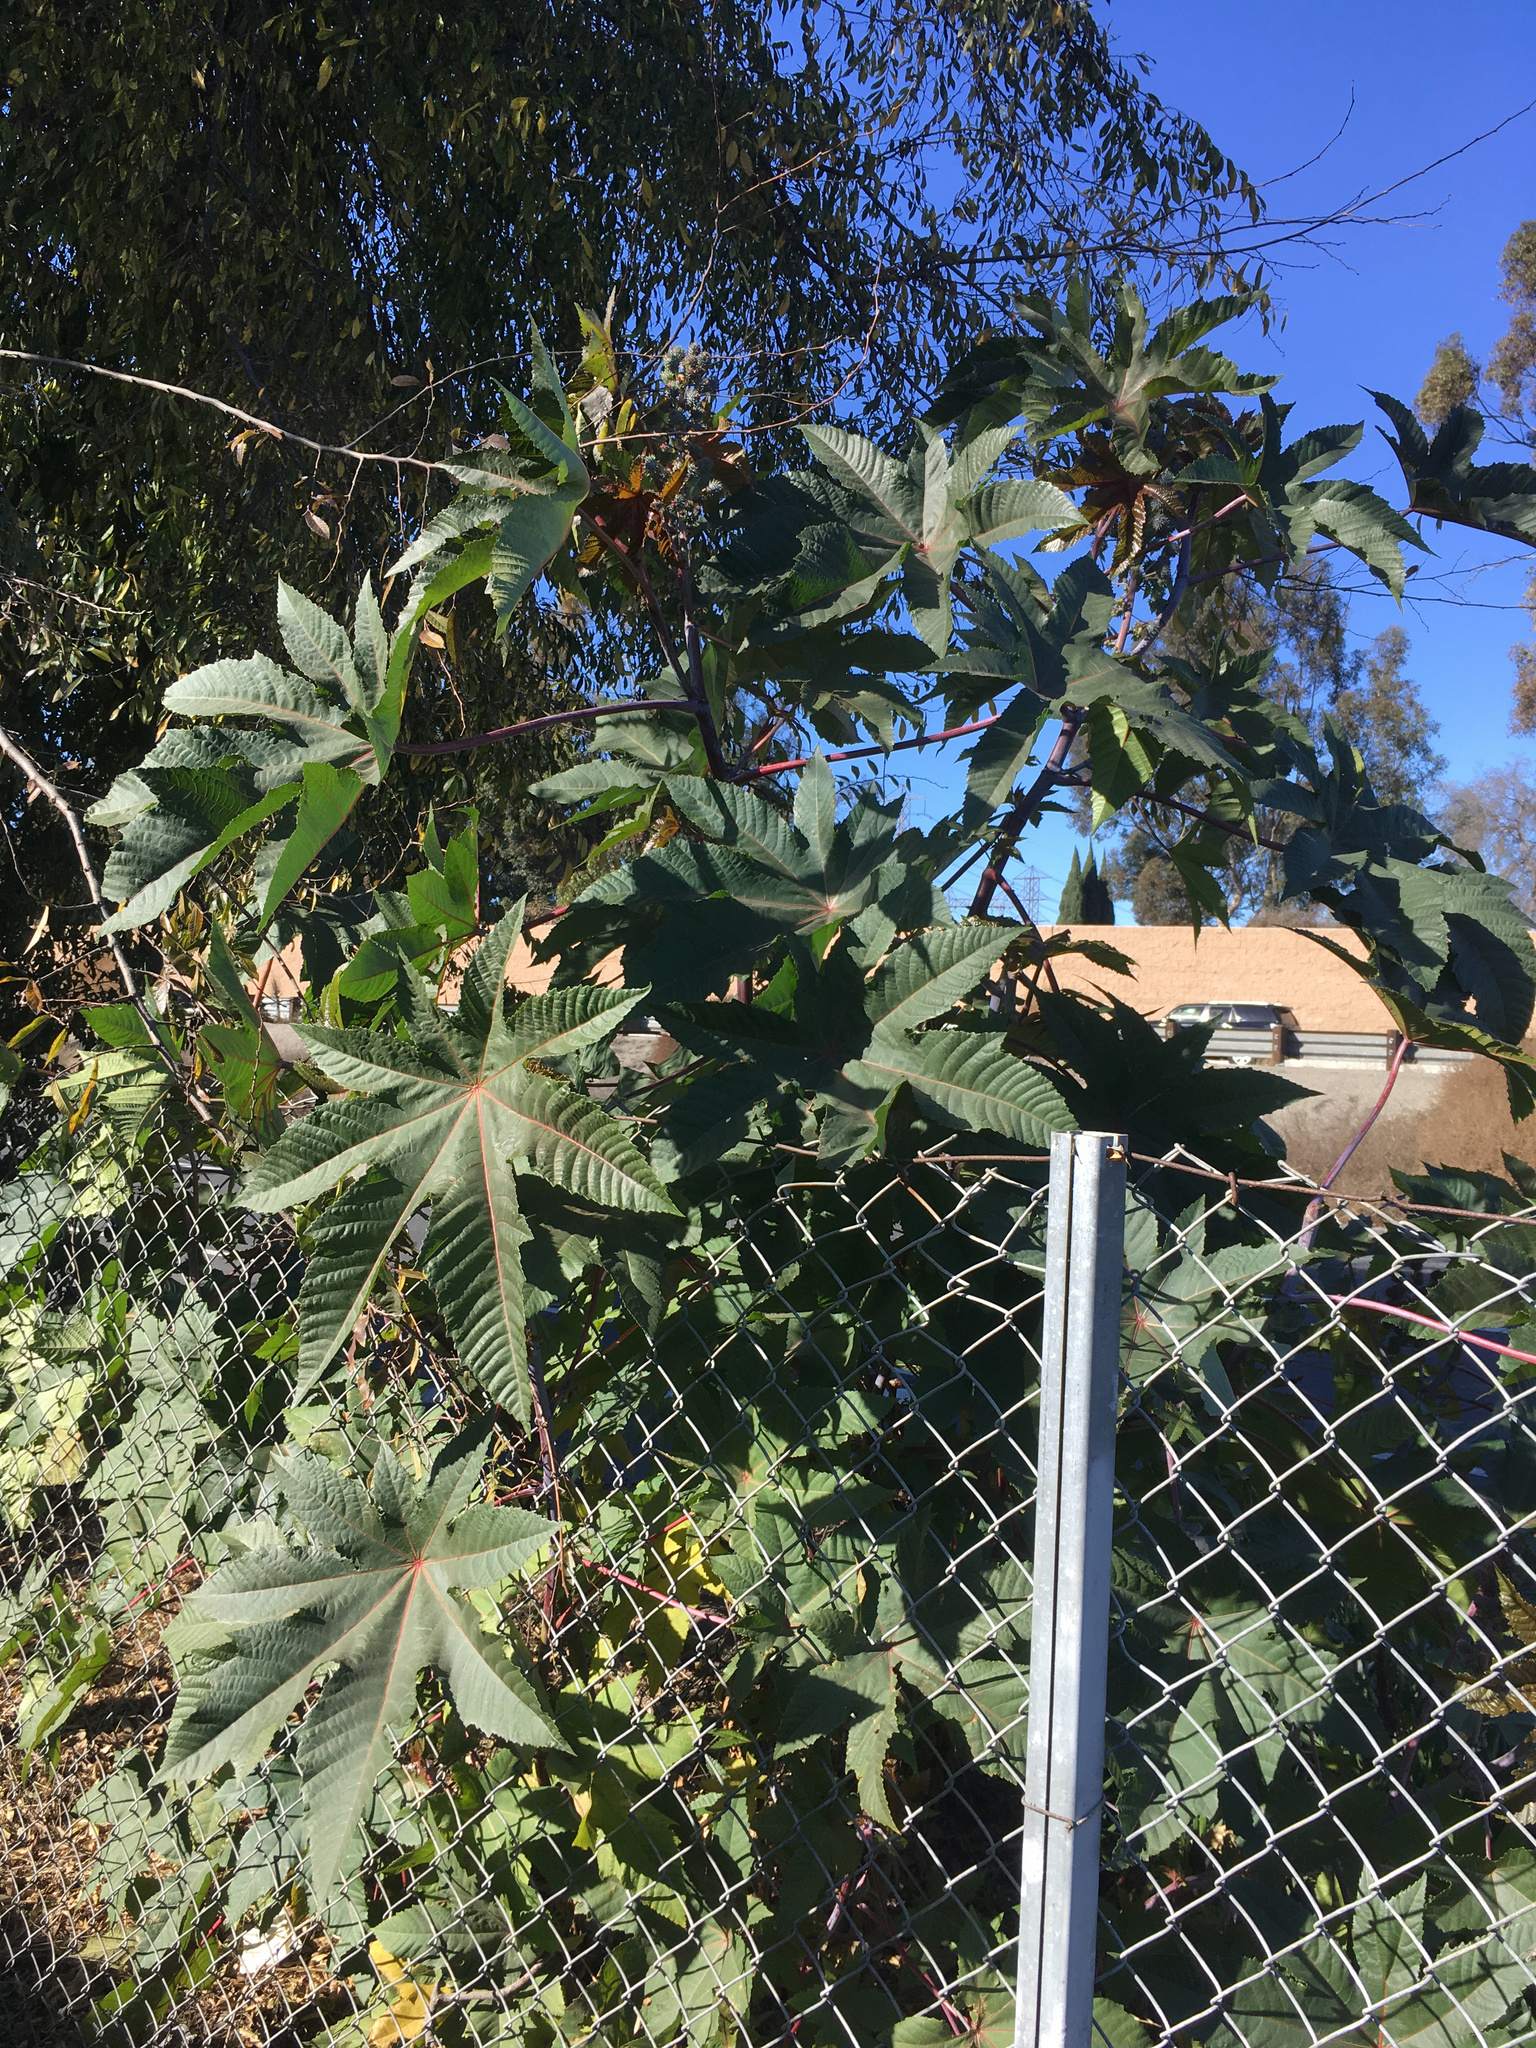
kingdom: Plantae
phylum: Tracheophyta
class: Magnoliopsida
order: Malpighiales
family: Euphorbiaceae
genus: Ricinus
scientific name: Ricinus communis
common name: Castor-oil-plant
